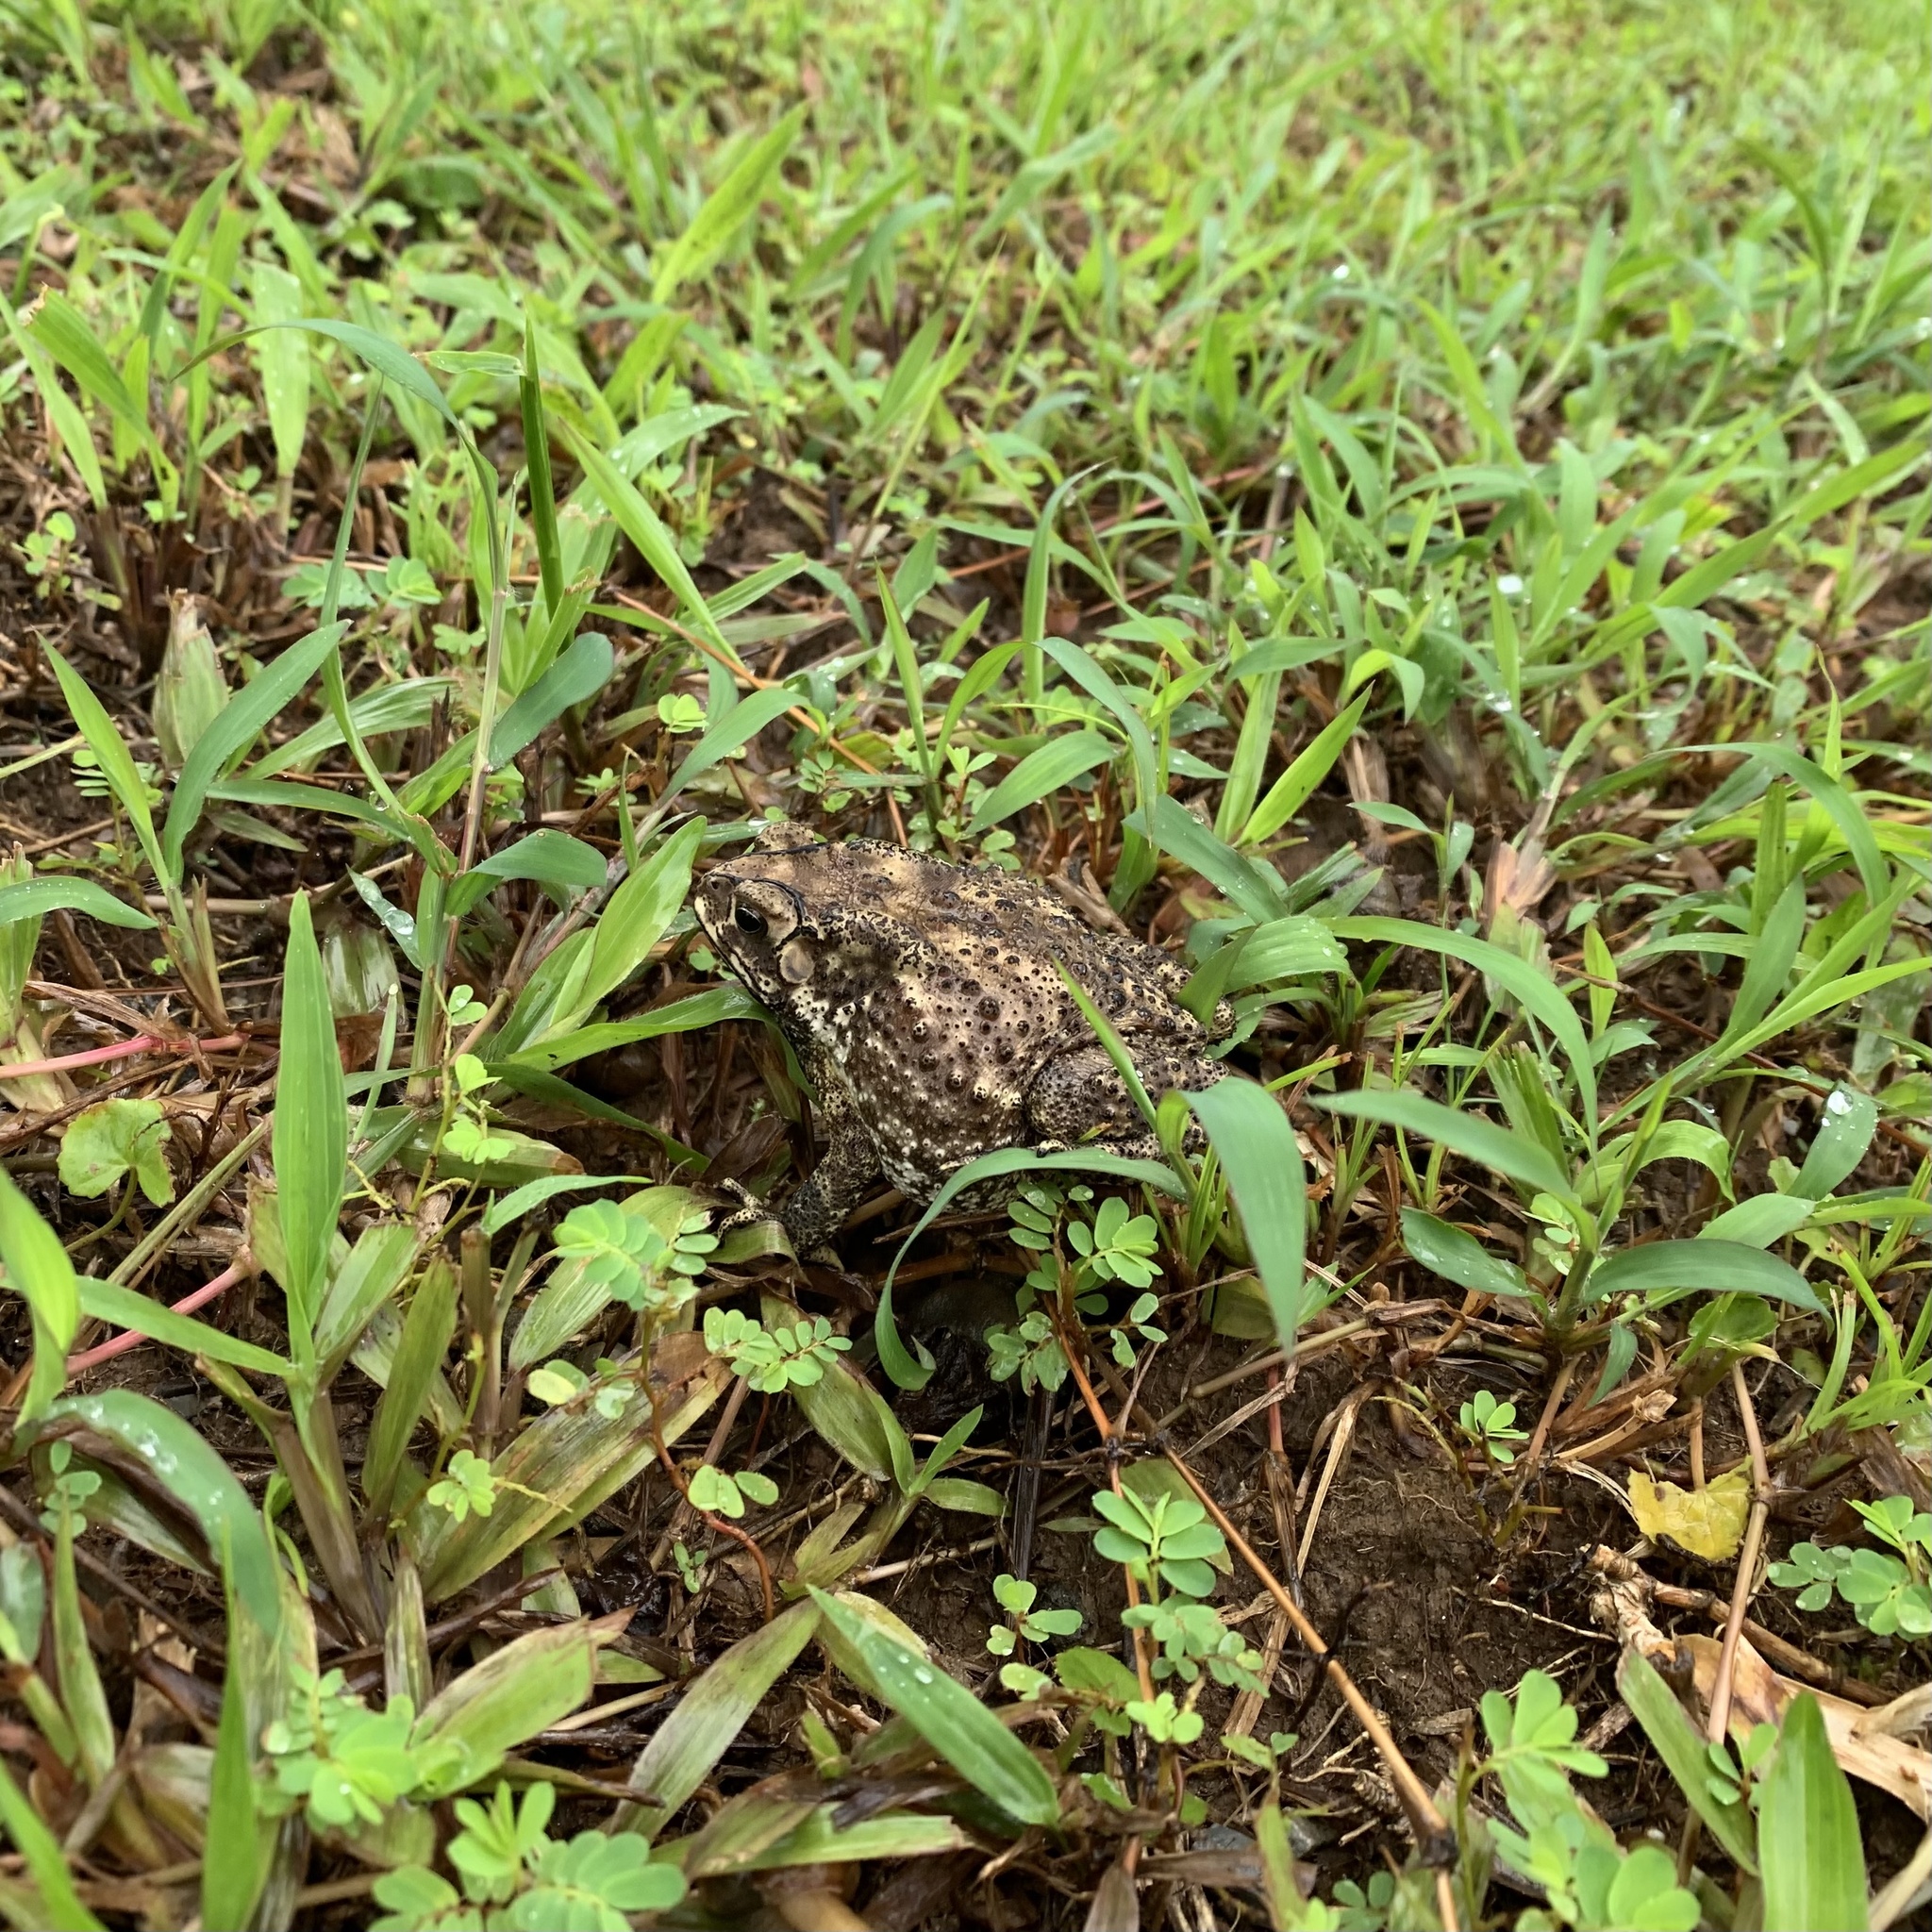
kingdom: Animalia
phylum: Chordata
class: Amphibia
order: Anura
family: Bufonidae
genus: Duttaphrynus
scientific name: Duttaphrynus melanostictus
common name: Common sunda toad
